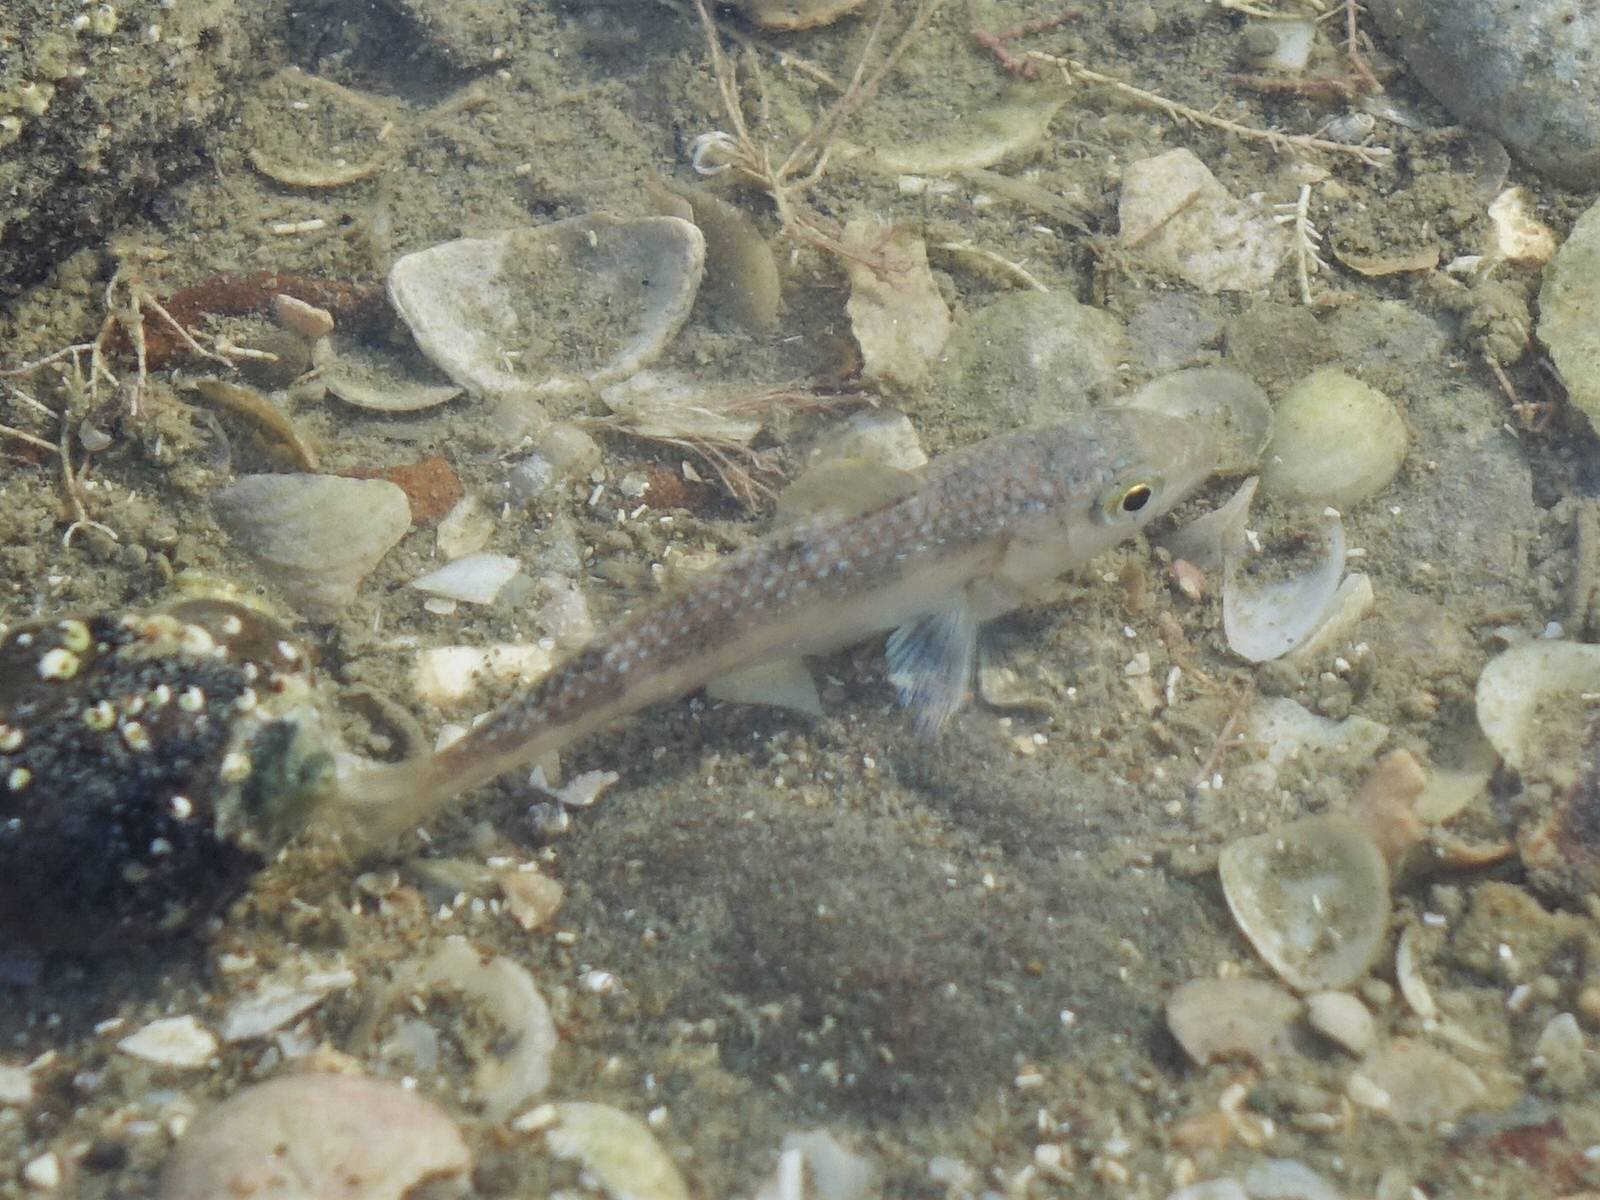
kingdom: Animalia
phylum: Chordata
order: Perciformes
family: Mullidae
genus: Upeneichthys
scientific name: Upeneichthys lineatus
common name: Red mullet
